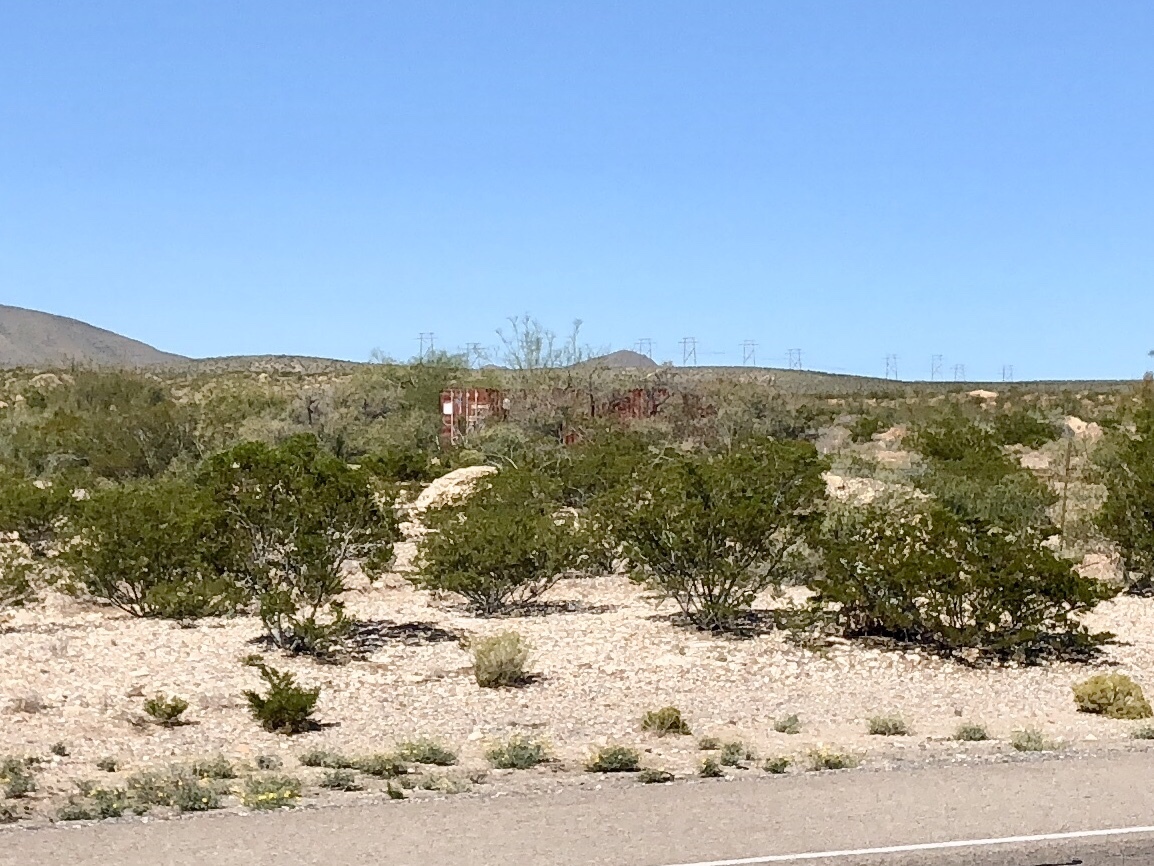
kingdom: Plantae
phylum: Tracheophyta
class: Magnoliopsida
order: Zygophyllales
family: Zygophyllaceae
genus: Larrea
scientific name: Larrea tridentata
